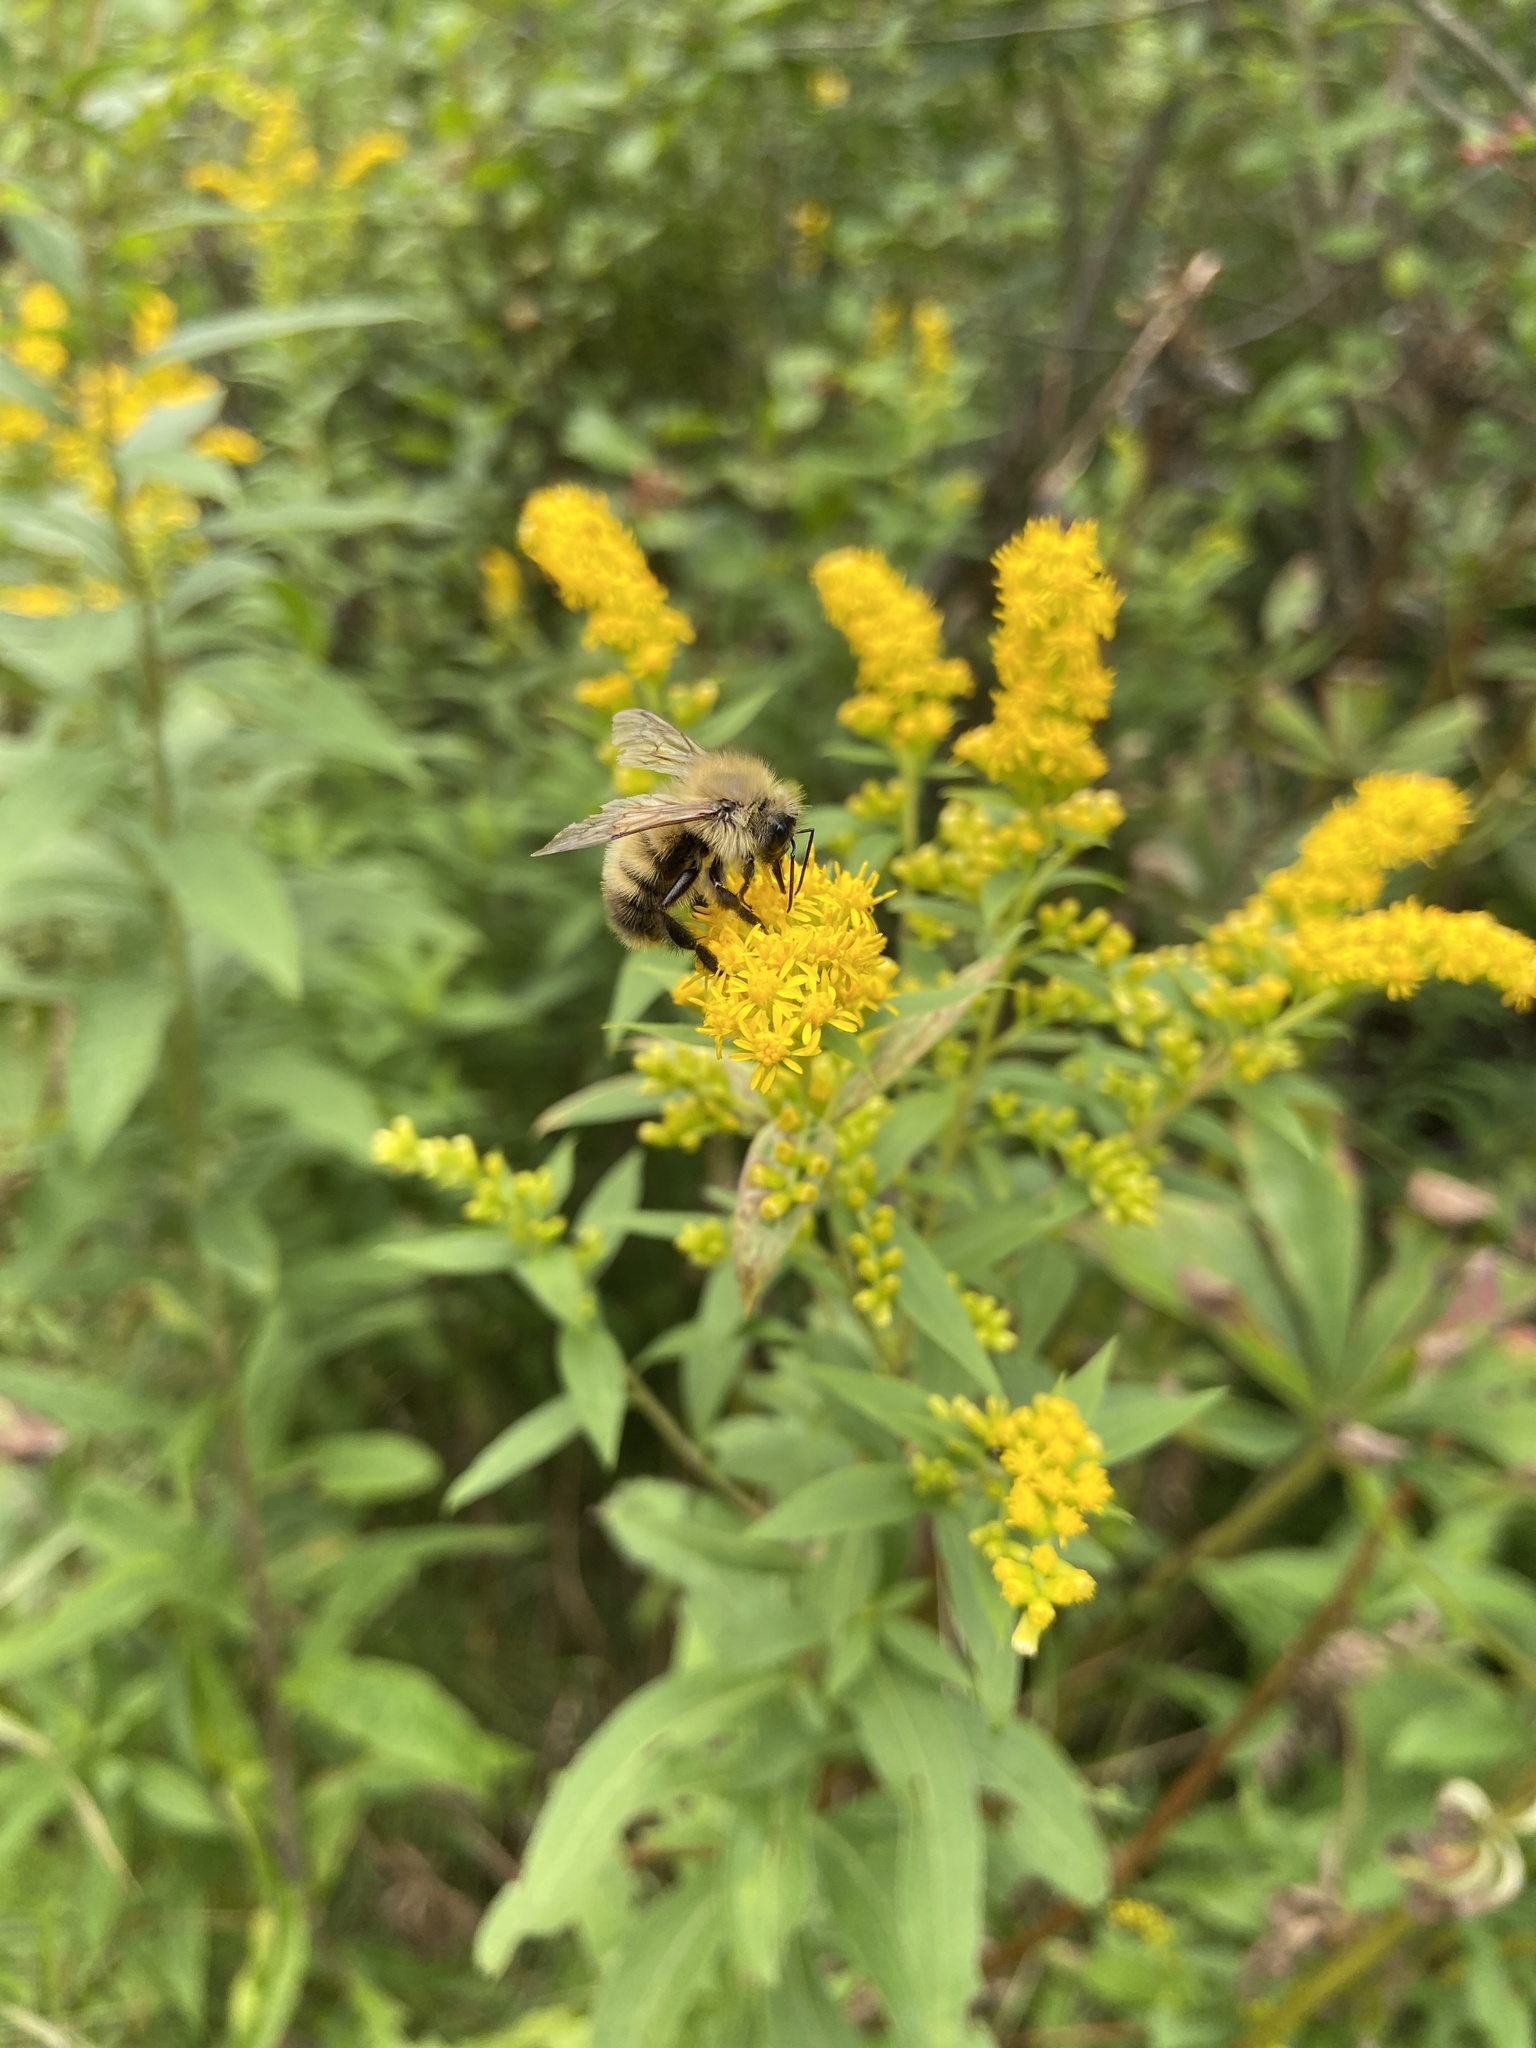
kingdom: Animalia
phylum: Arthropoda
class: Insecta
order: Hymenoptera
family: Apidae
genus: Bombus
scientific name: Bombus perplexus
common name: Confusing bumble bee
